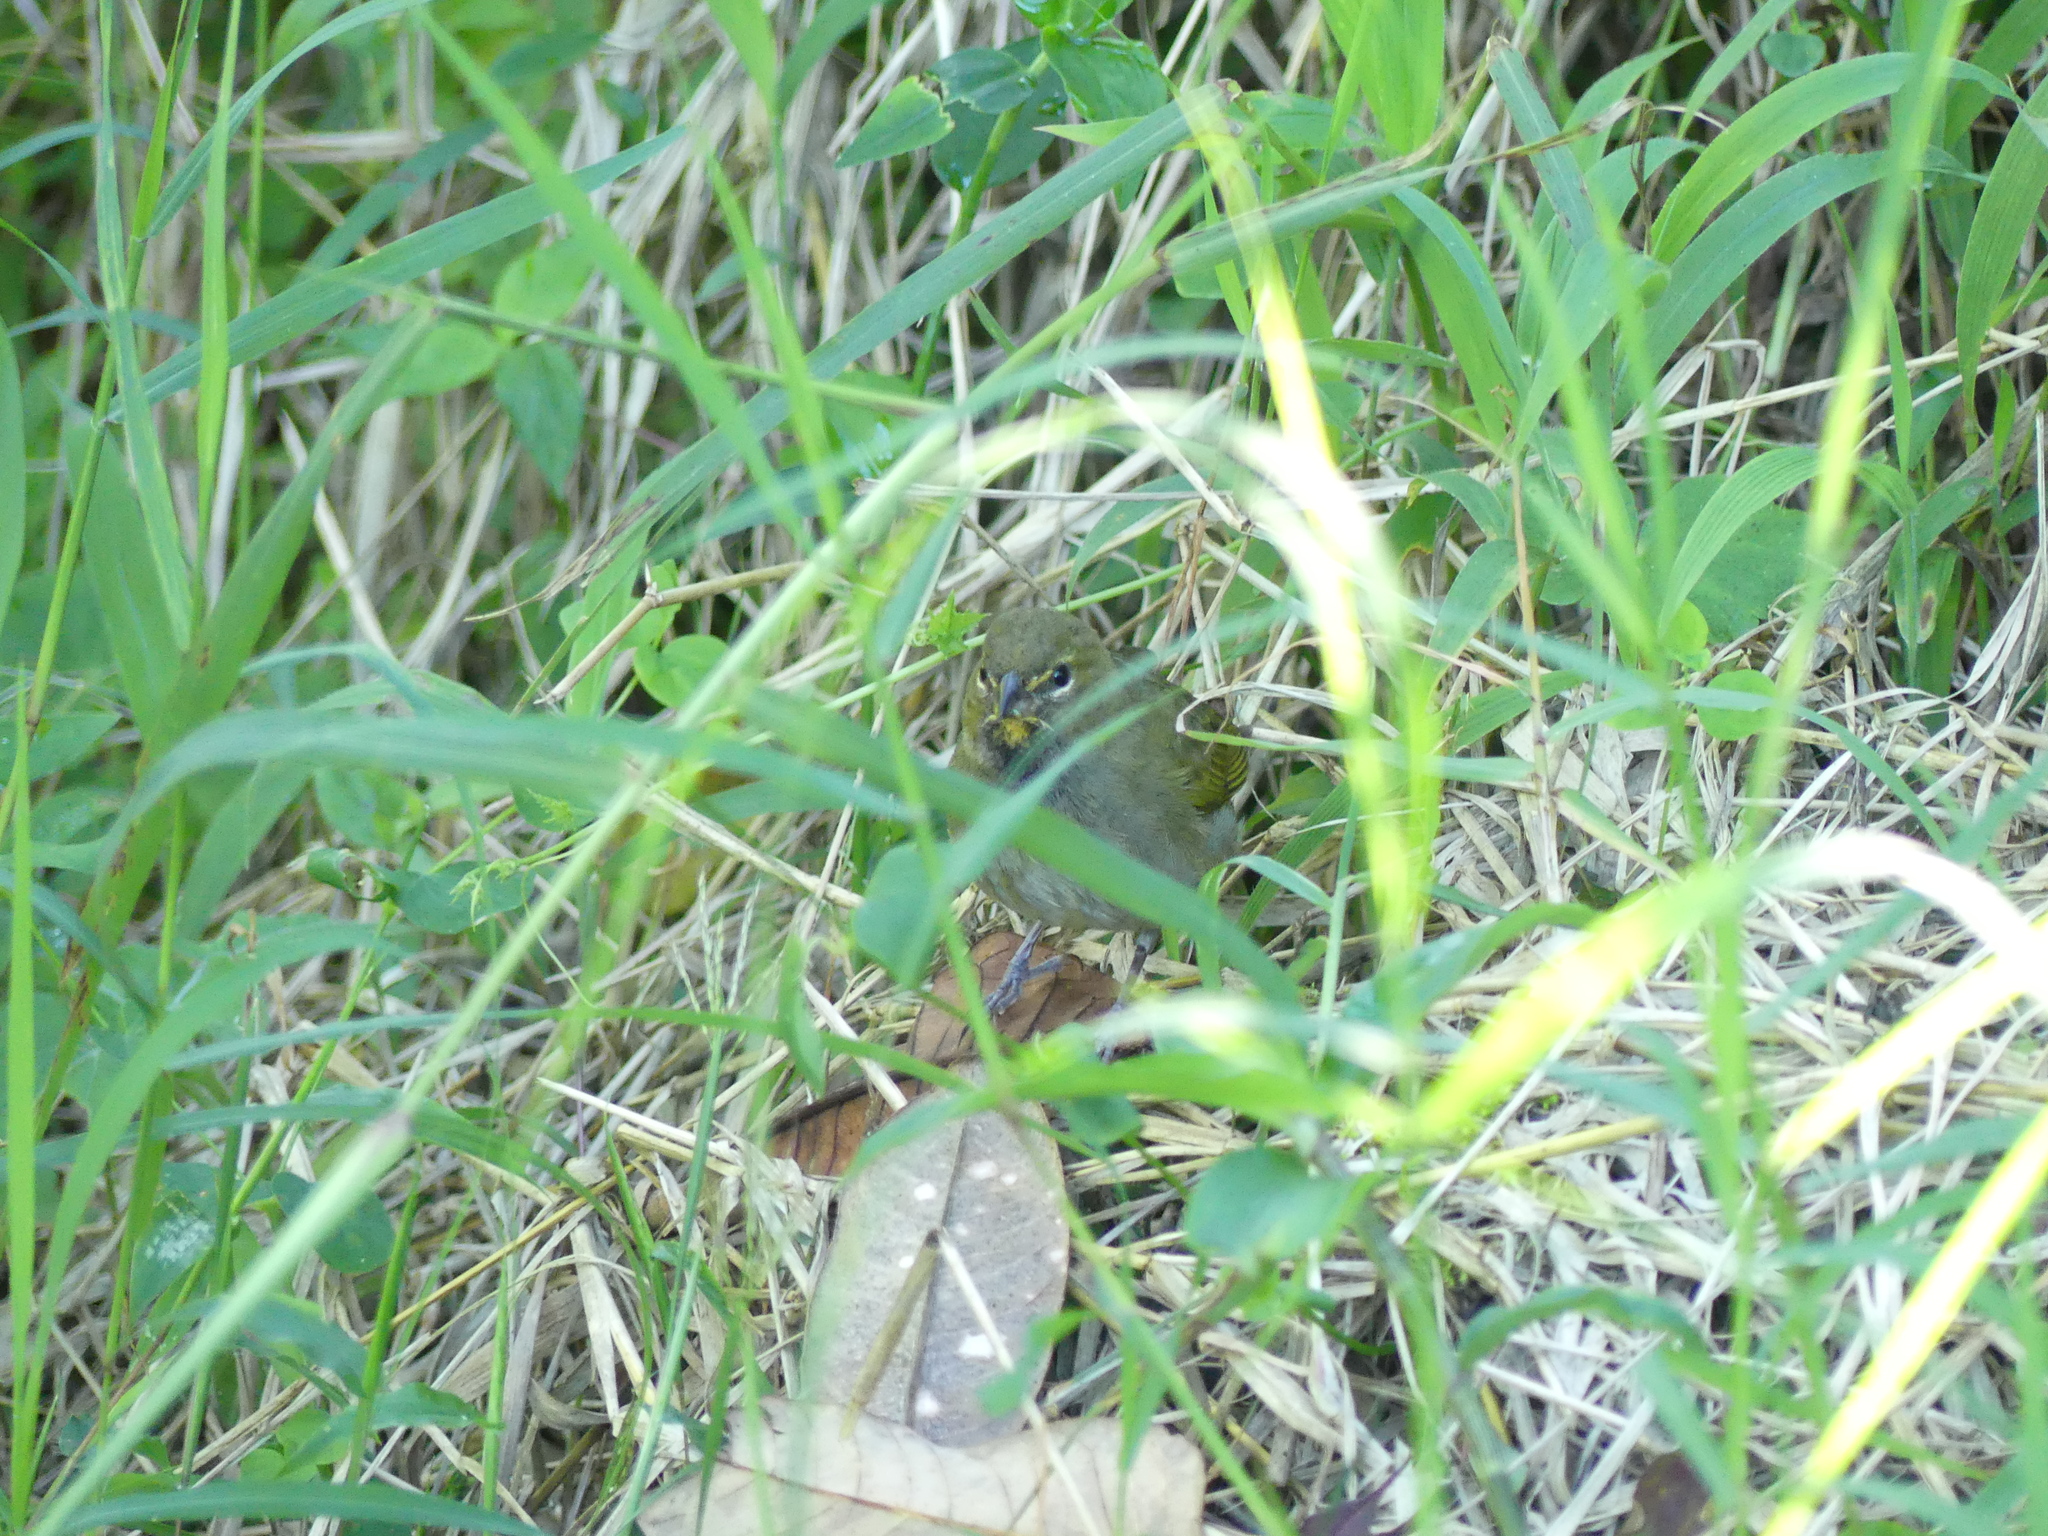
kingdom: Animalia
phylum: Chordata
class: Aves
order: Passeriformes
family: Thraupidae
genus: Tiaris
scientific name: Tiaris olivaceus
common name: Yellow-faced grassquit
